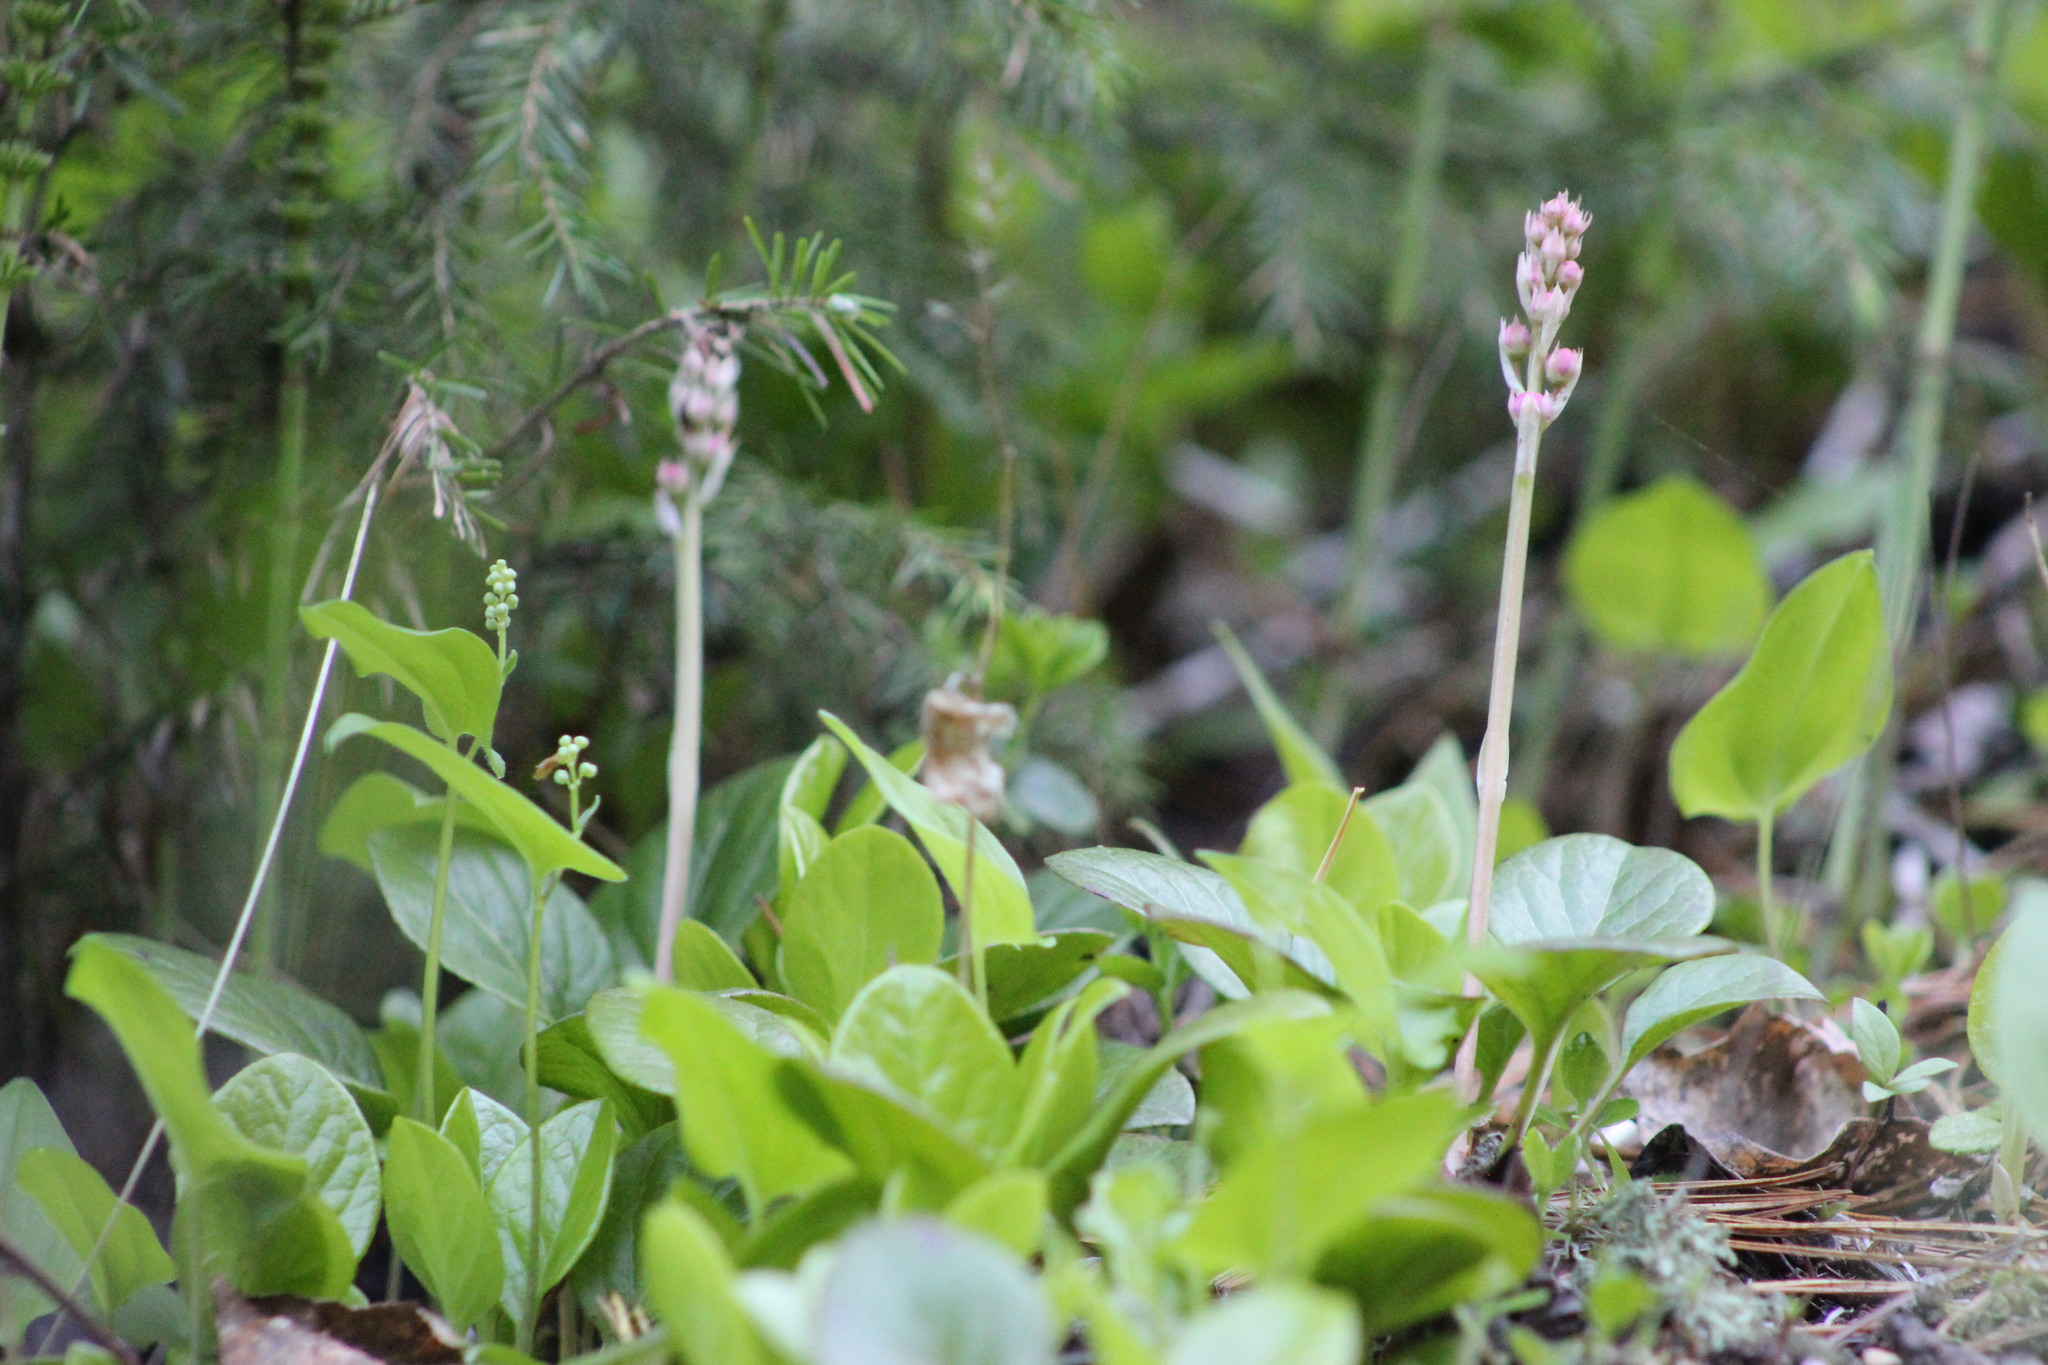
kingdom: Plantae
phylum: Tracheophyta
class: Magnoliopsida
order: Ericales
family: Ericaceae
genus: Pyrola
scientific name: Pyrola asarifolia
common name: Bog wintergreen
